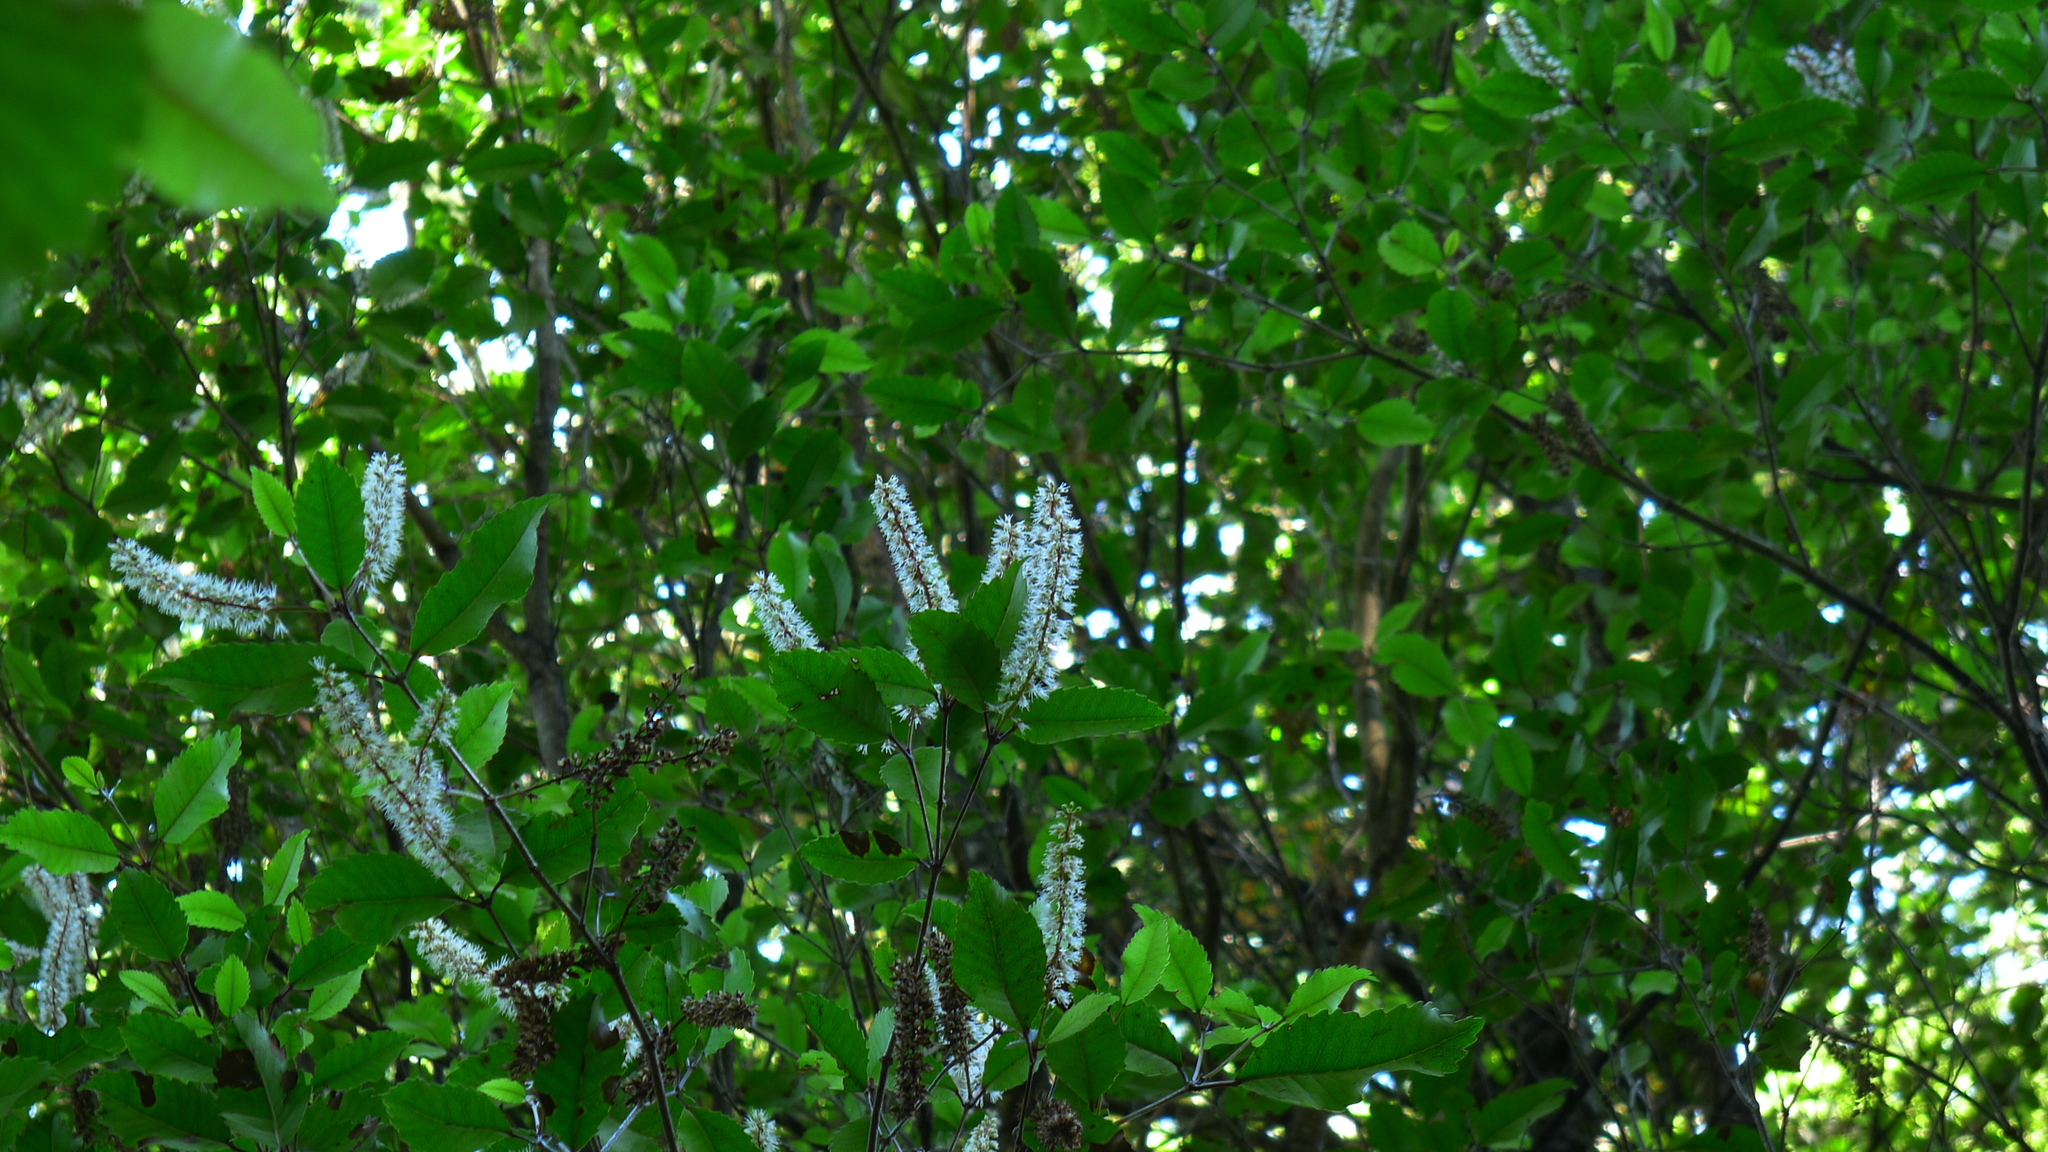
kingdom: Plantae
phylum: Tracheophyta
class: Magnoliopsida
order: Oxalidales
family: Cunoniaceae
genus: Pterophylla
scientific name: Pterophylla racemosa
